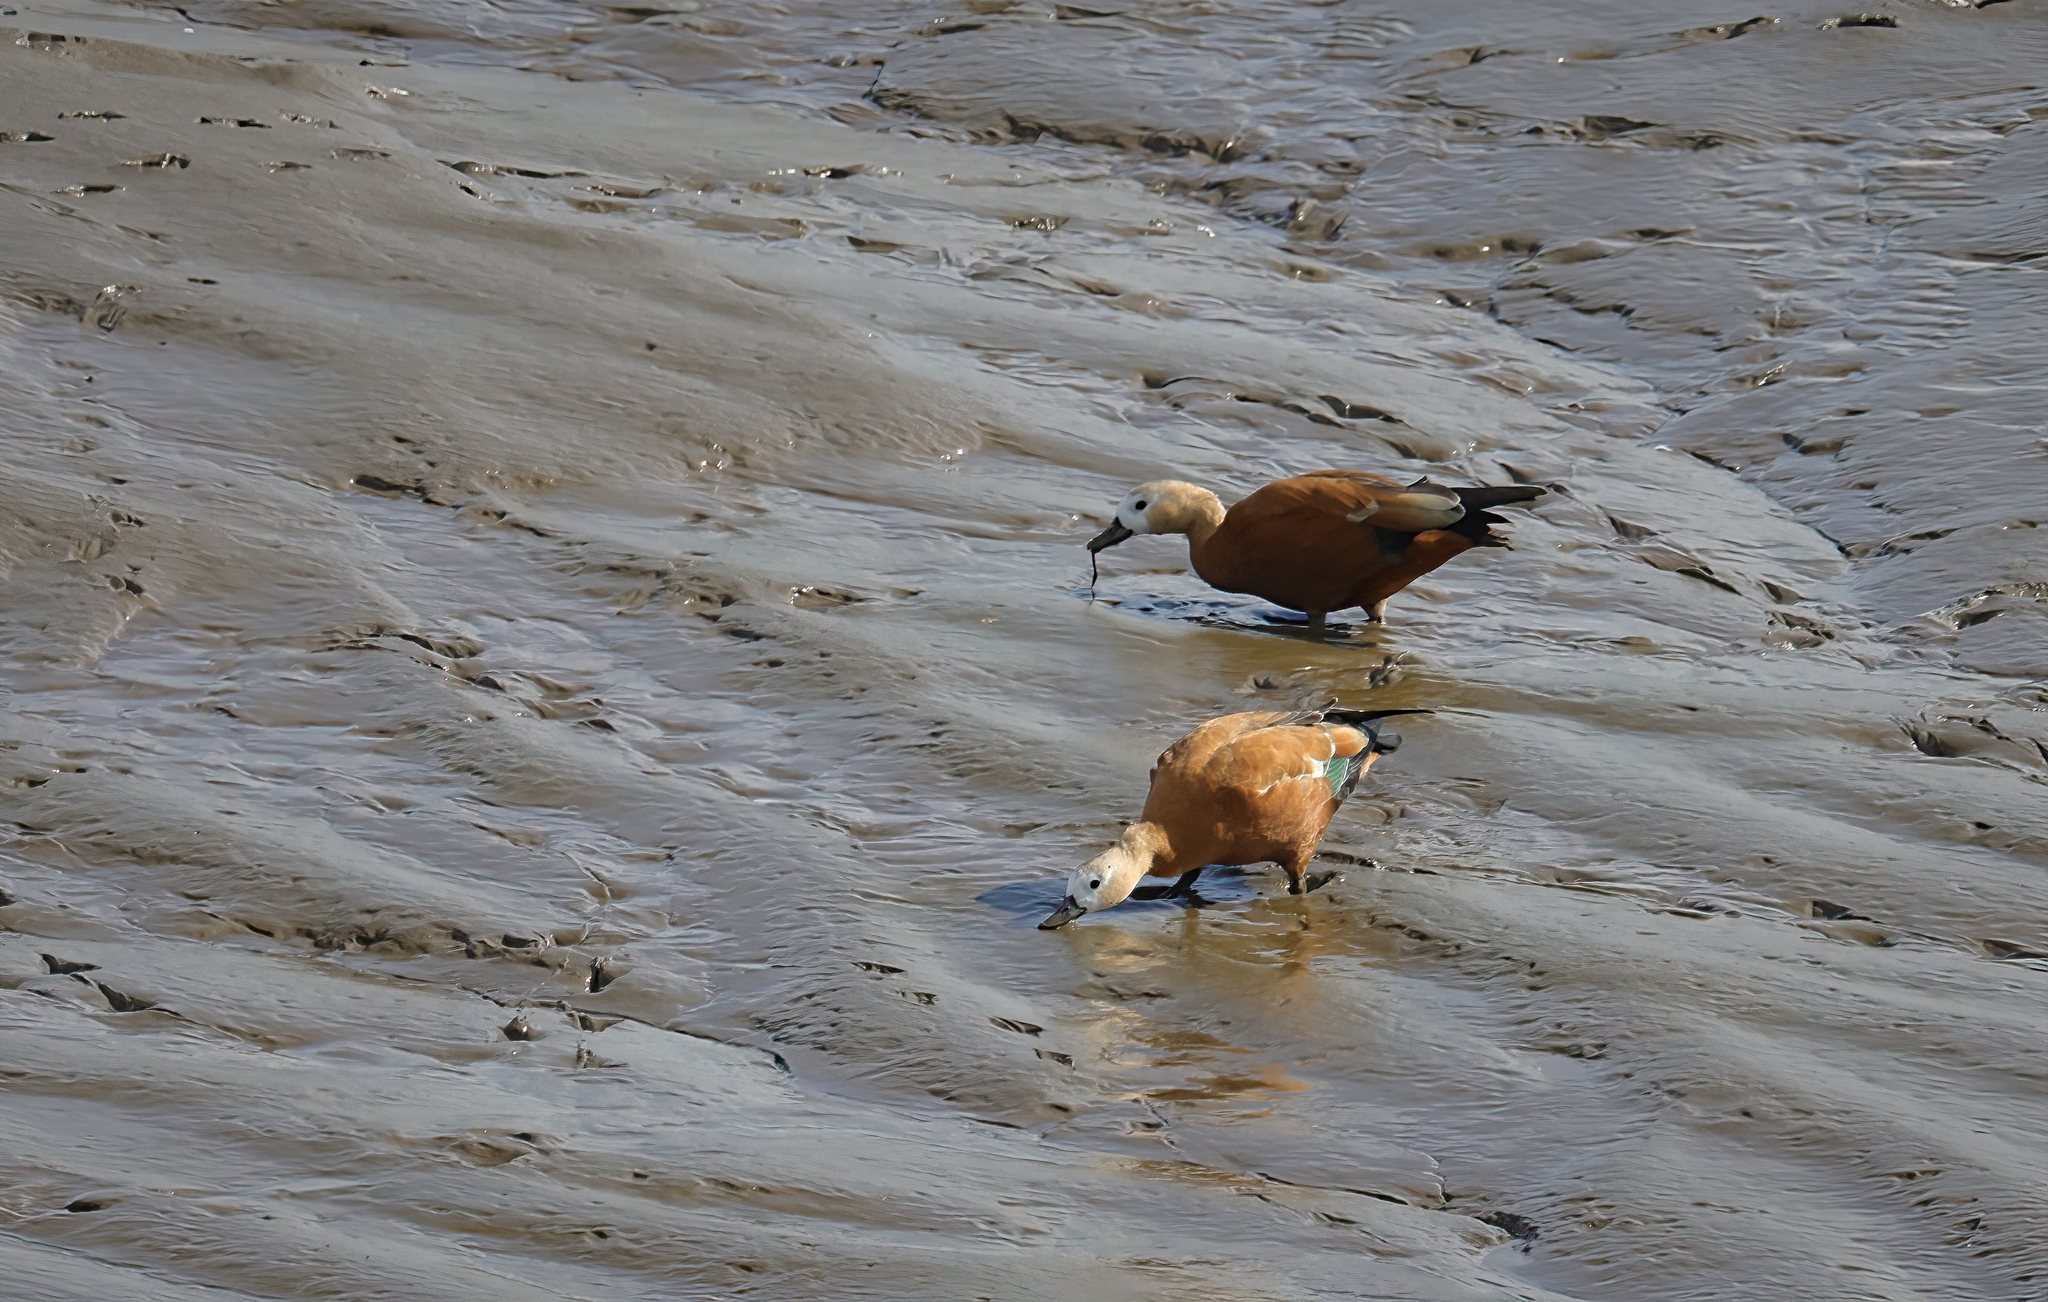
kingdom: Animalia
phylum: Chordata
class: Aves
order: Anseriformes
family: Anatidae
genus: Tadorna
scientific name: Tadorna ferruginea
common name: Ruddy shelduck
